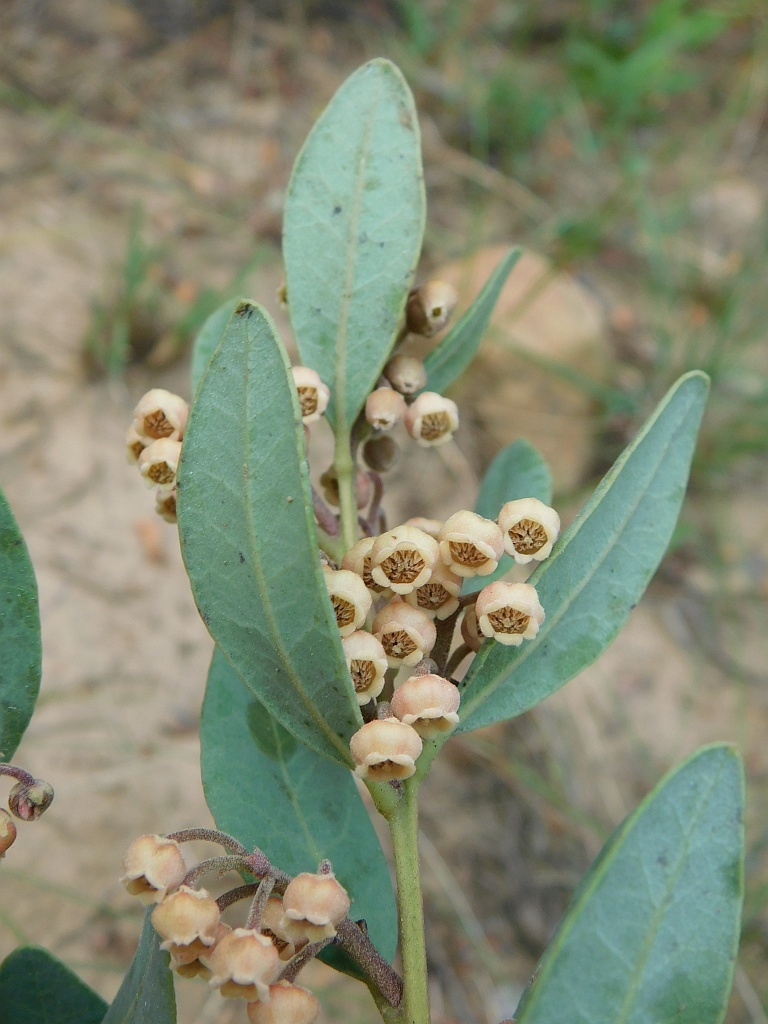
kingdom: Plantae
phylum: Tracheophyta
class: Magnoliopsida
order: Ericales
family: Ebenaceae
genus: Euclea
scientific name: Euclea polyandra
